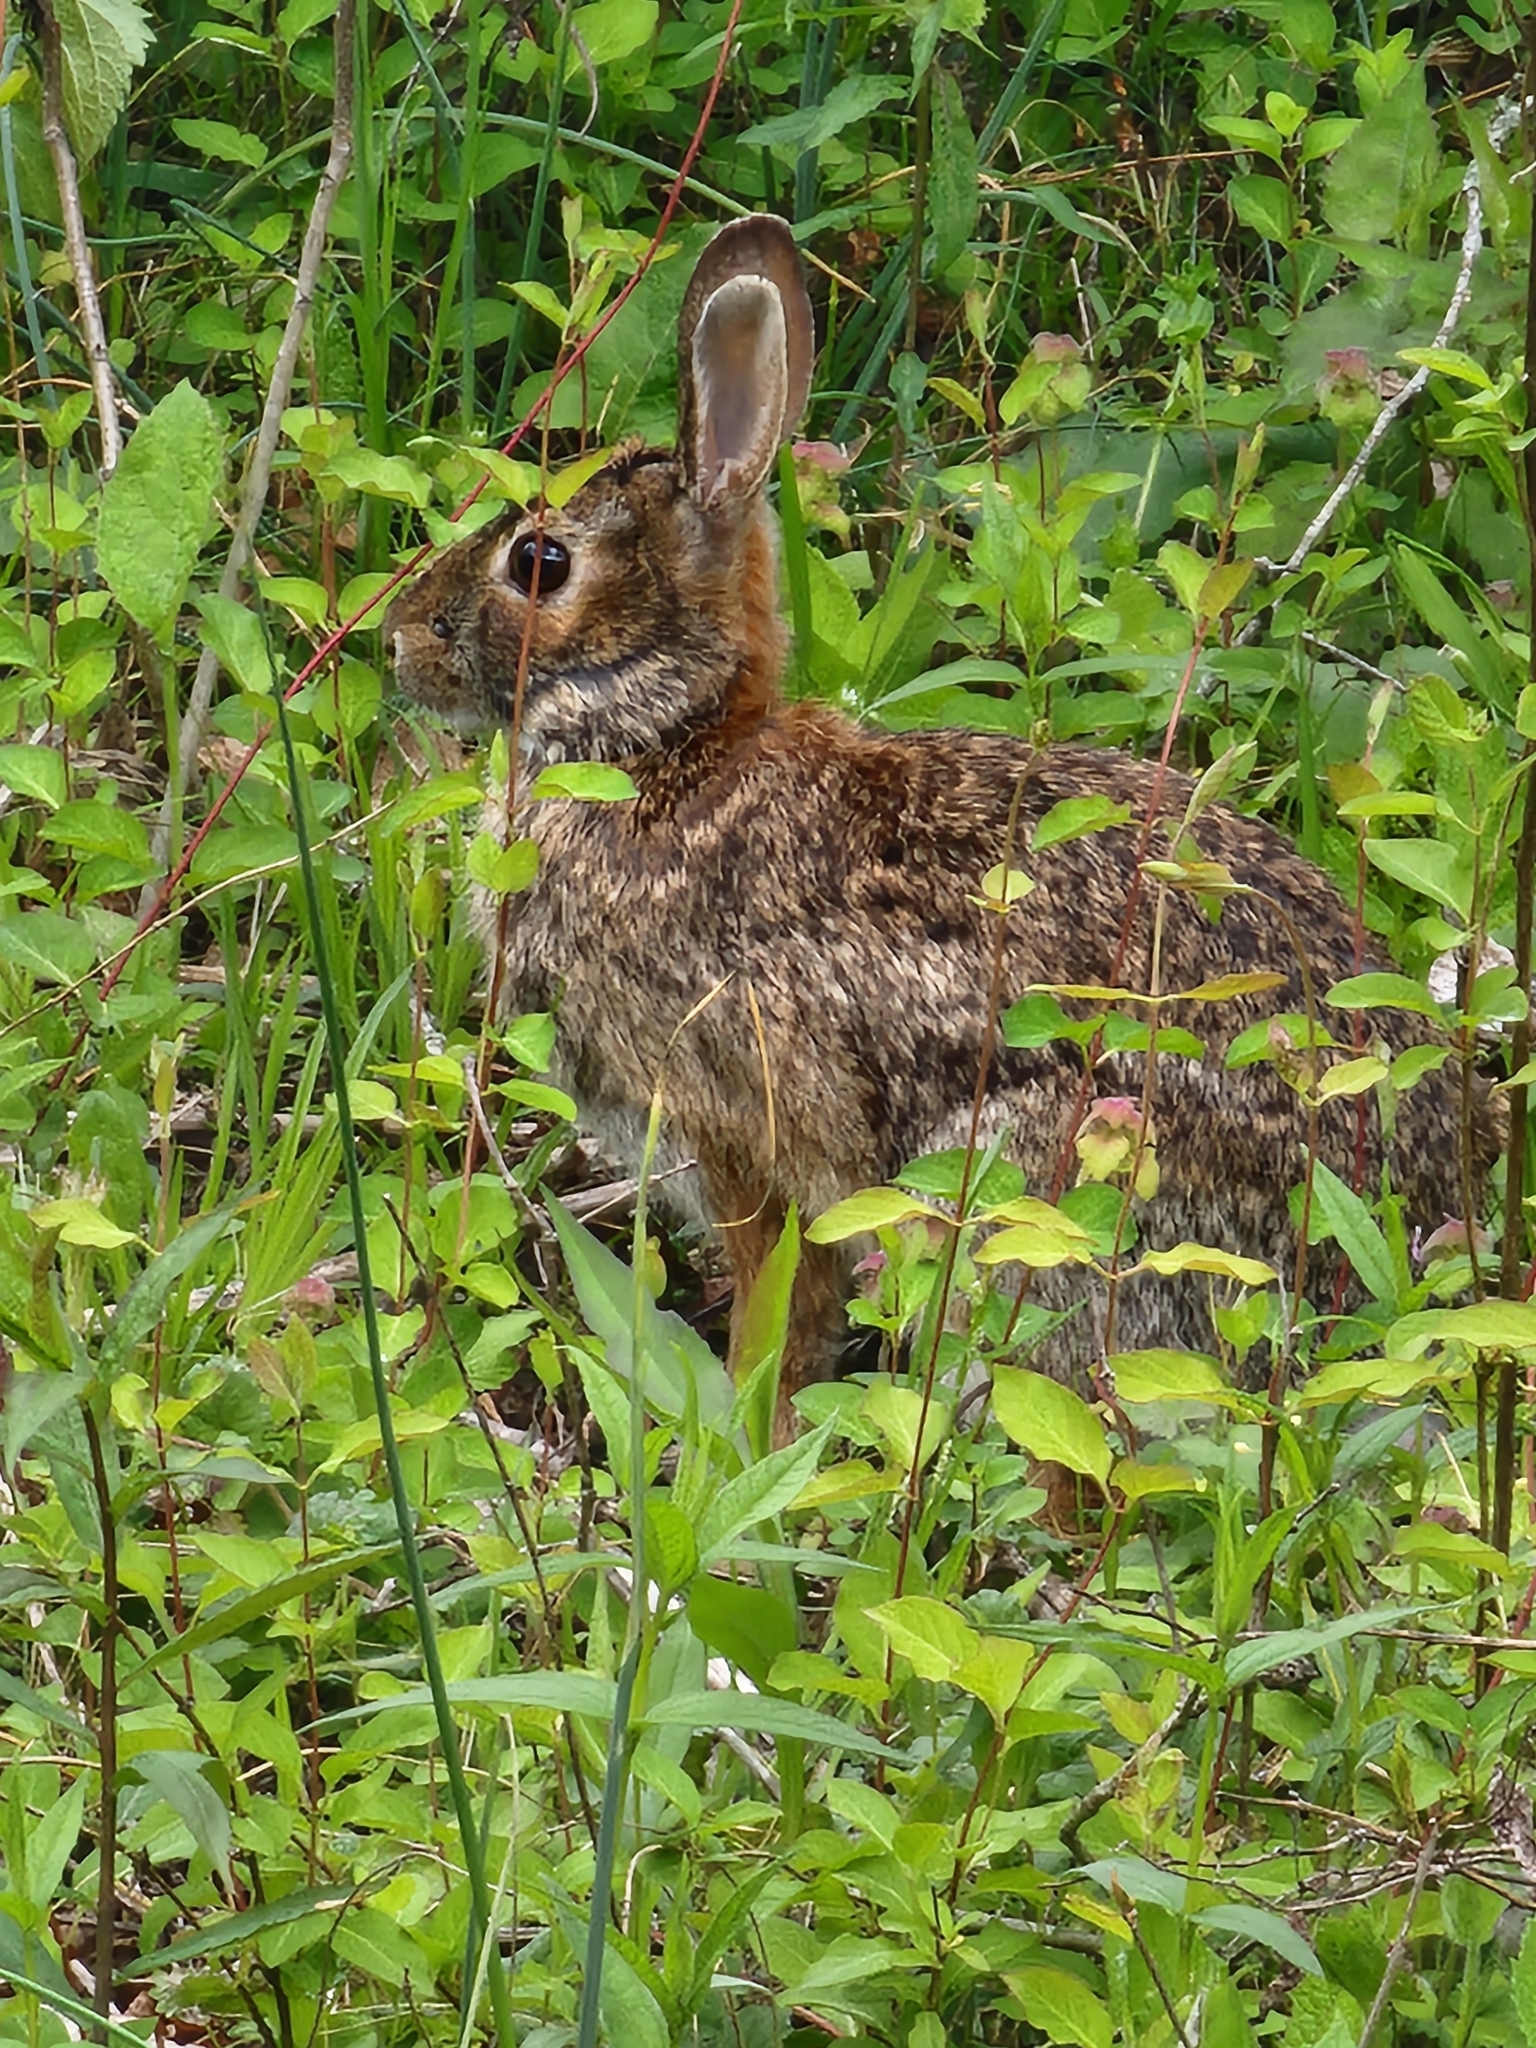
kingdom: Animalia
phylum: Chordata
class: Mammalia
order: Lagomorpha
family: Leporidae
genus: Sylvilagus
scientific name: Sylvilagus floridanus
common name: Eastern cottontail
